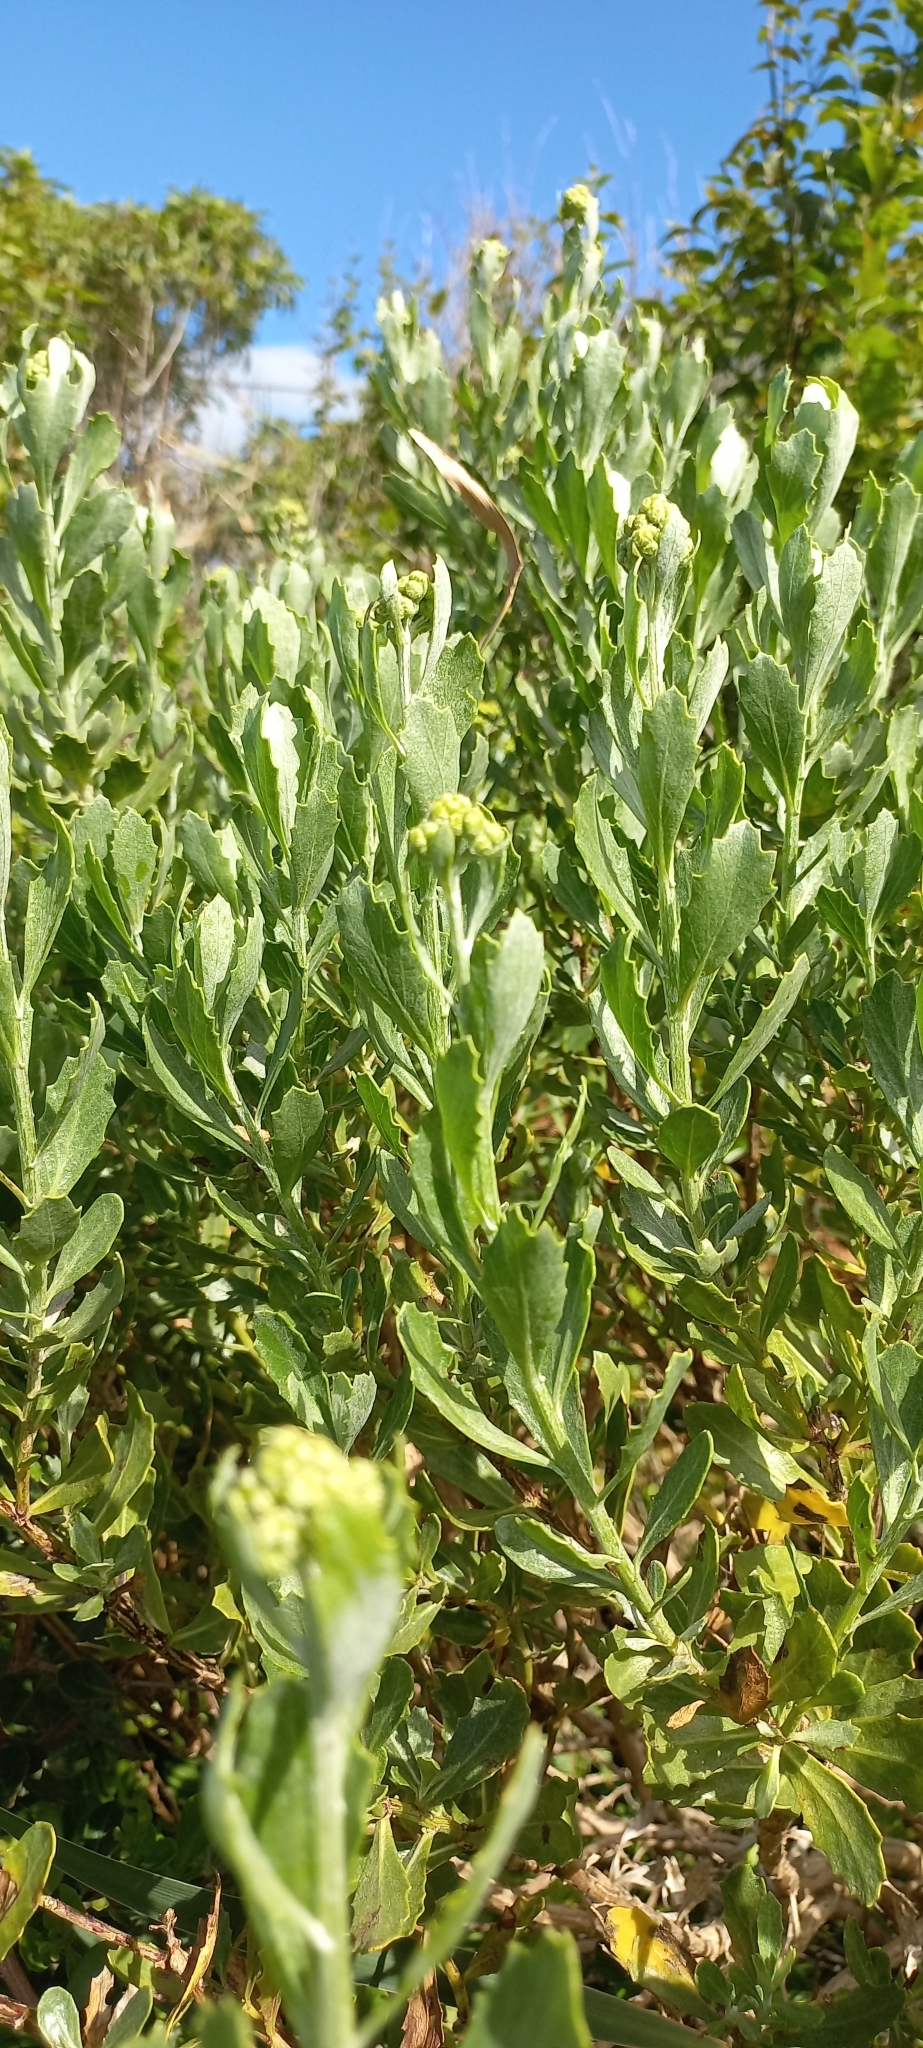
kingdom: Plantae
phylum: Tracheophyta
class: Magnoliopsida
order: Asterales
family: Asteraceae
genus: Senecio
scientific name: Senecio halimifolius
